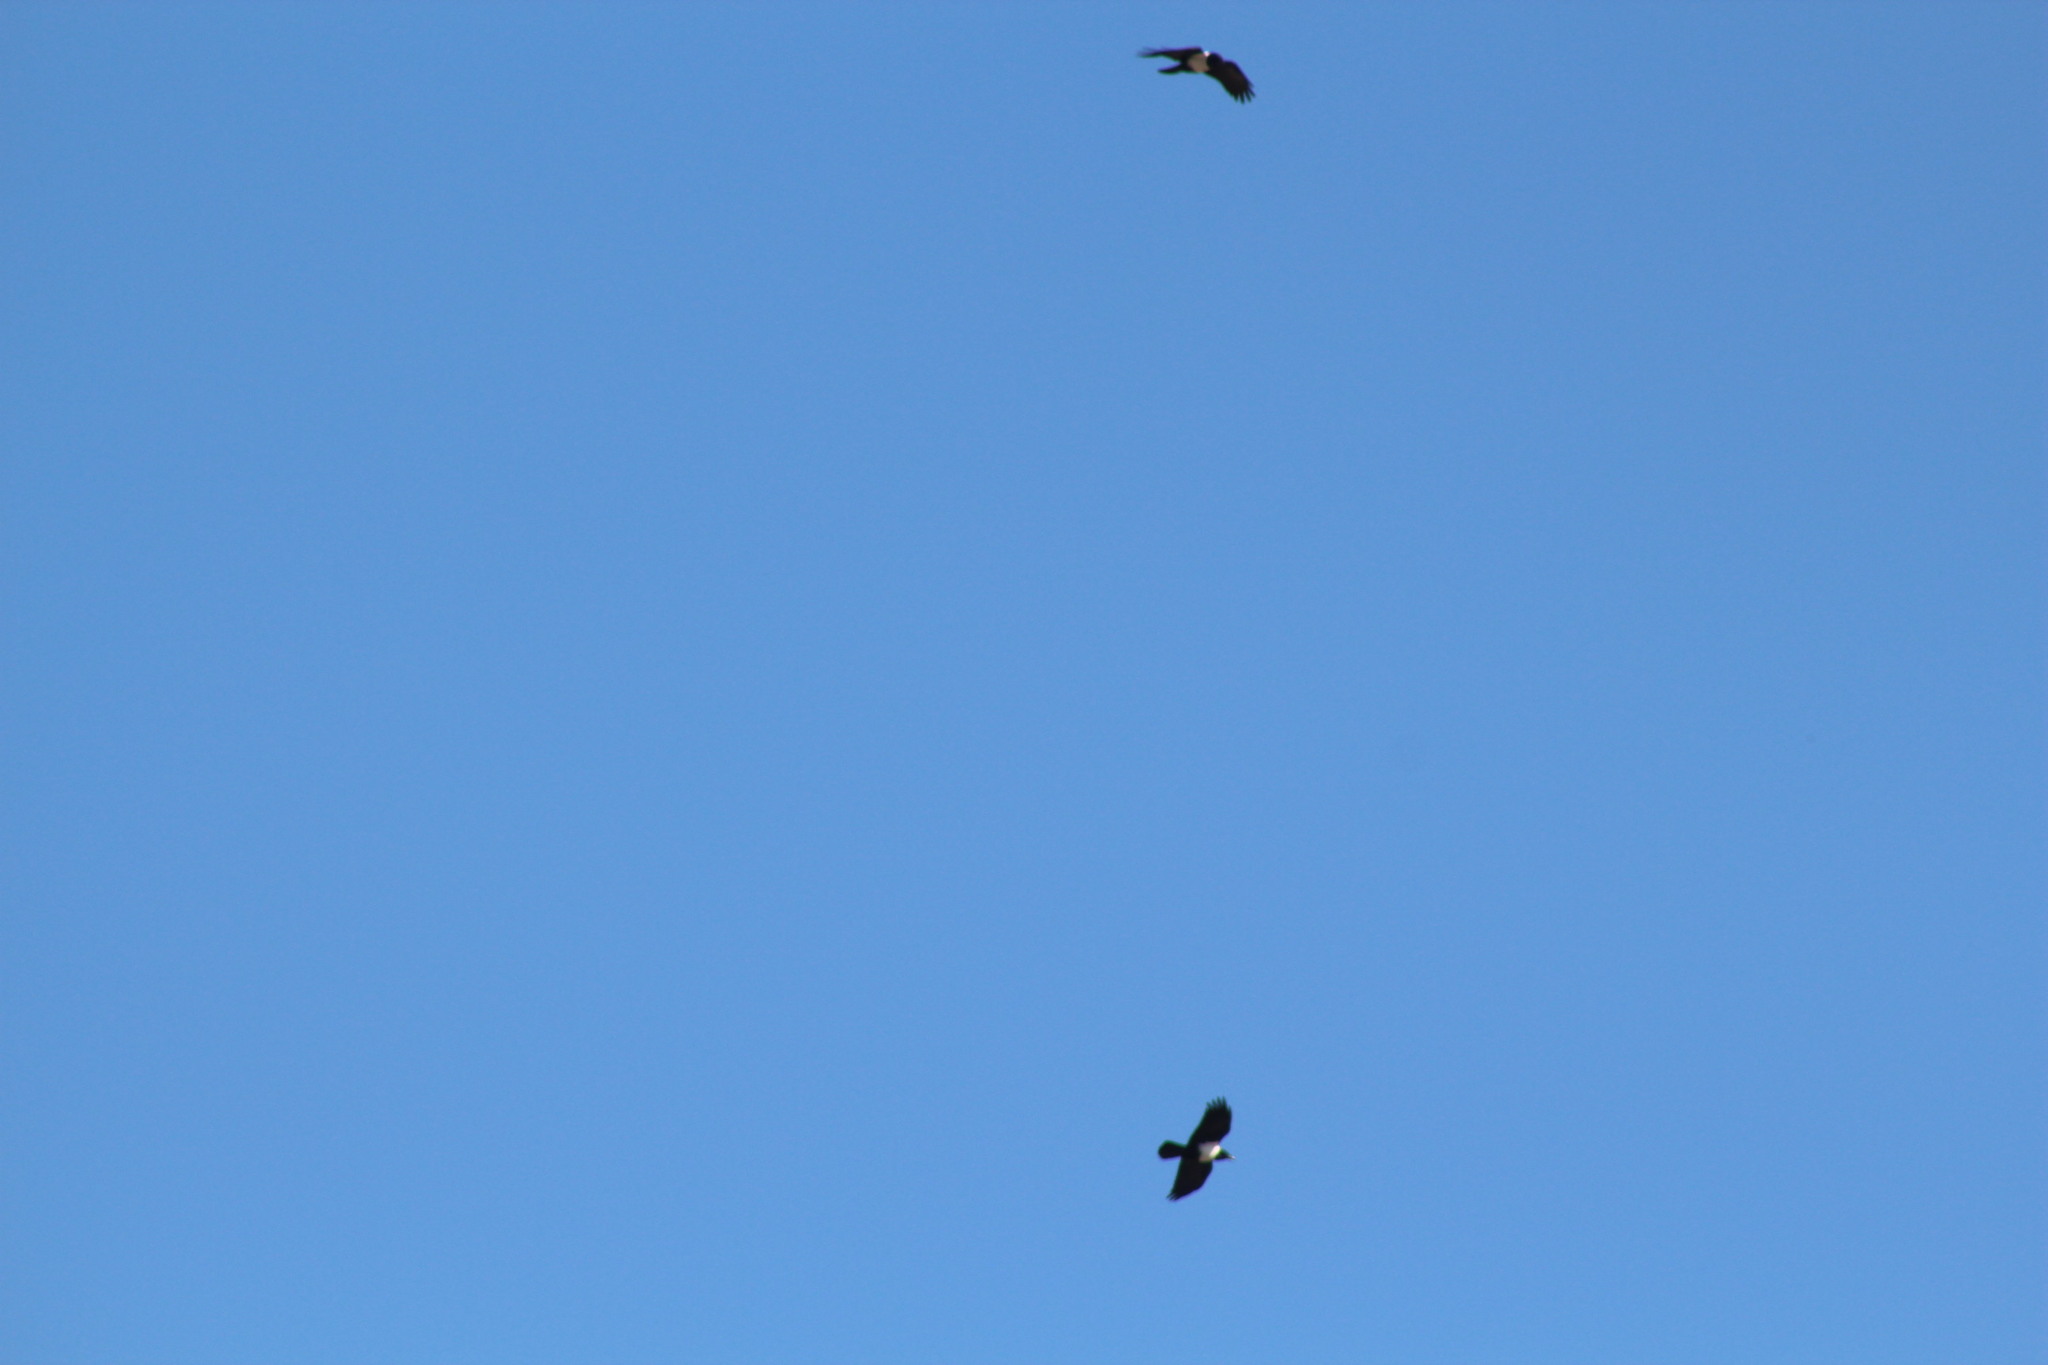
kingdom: Animalia
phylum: Chordata
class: Aves
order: Passeriformes
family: Corvidae
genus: Corvus
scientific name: Corvus albus
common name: Pied crow
